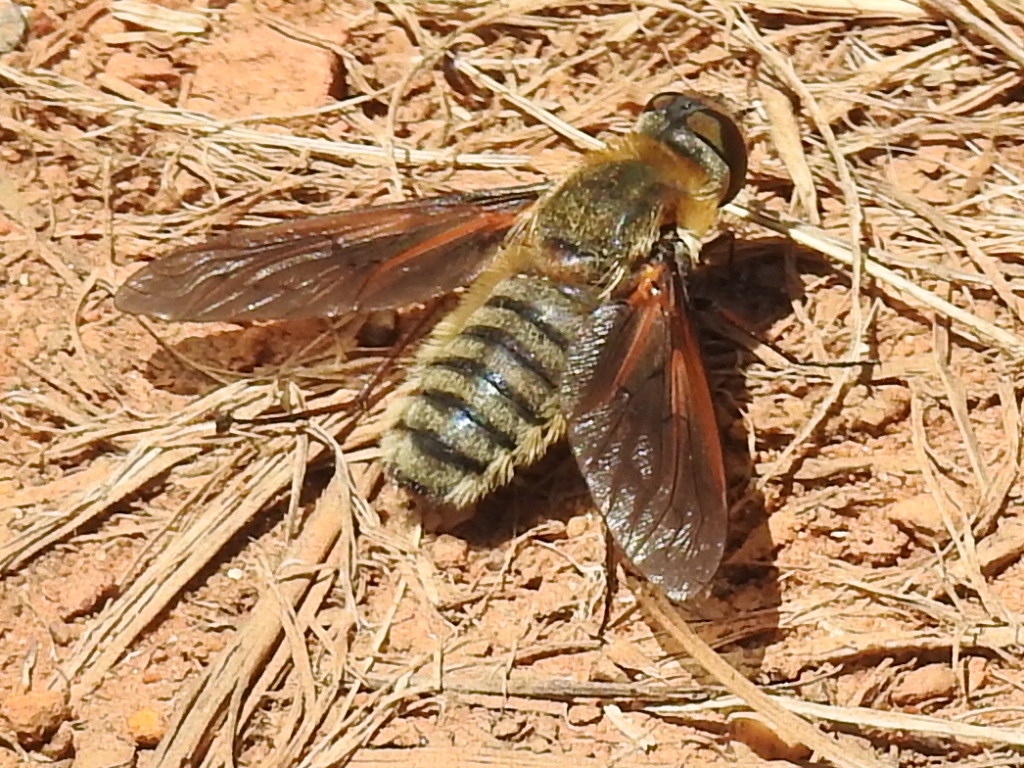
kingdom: Animalia
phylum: Arthropoda
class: Insecta
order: Diptera
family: Bombyliidae
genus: Poecilanthrax
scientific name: Poecilanthrax lucifer
